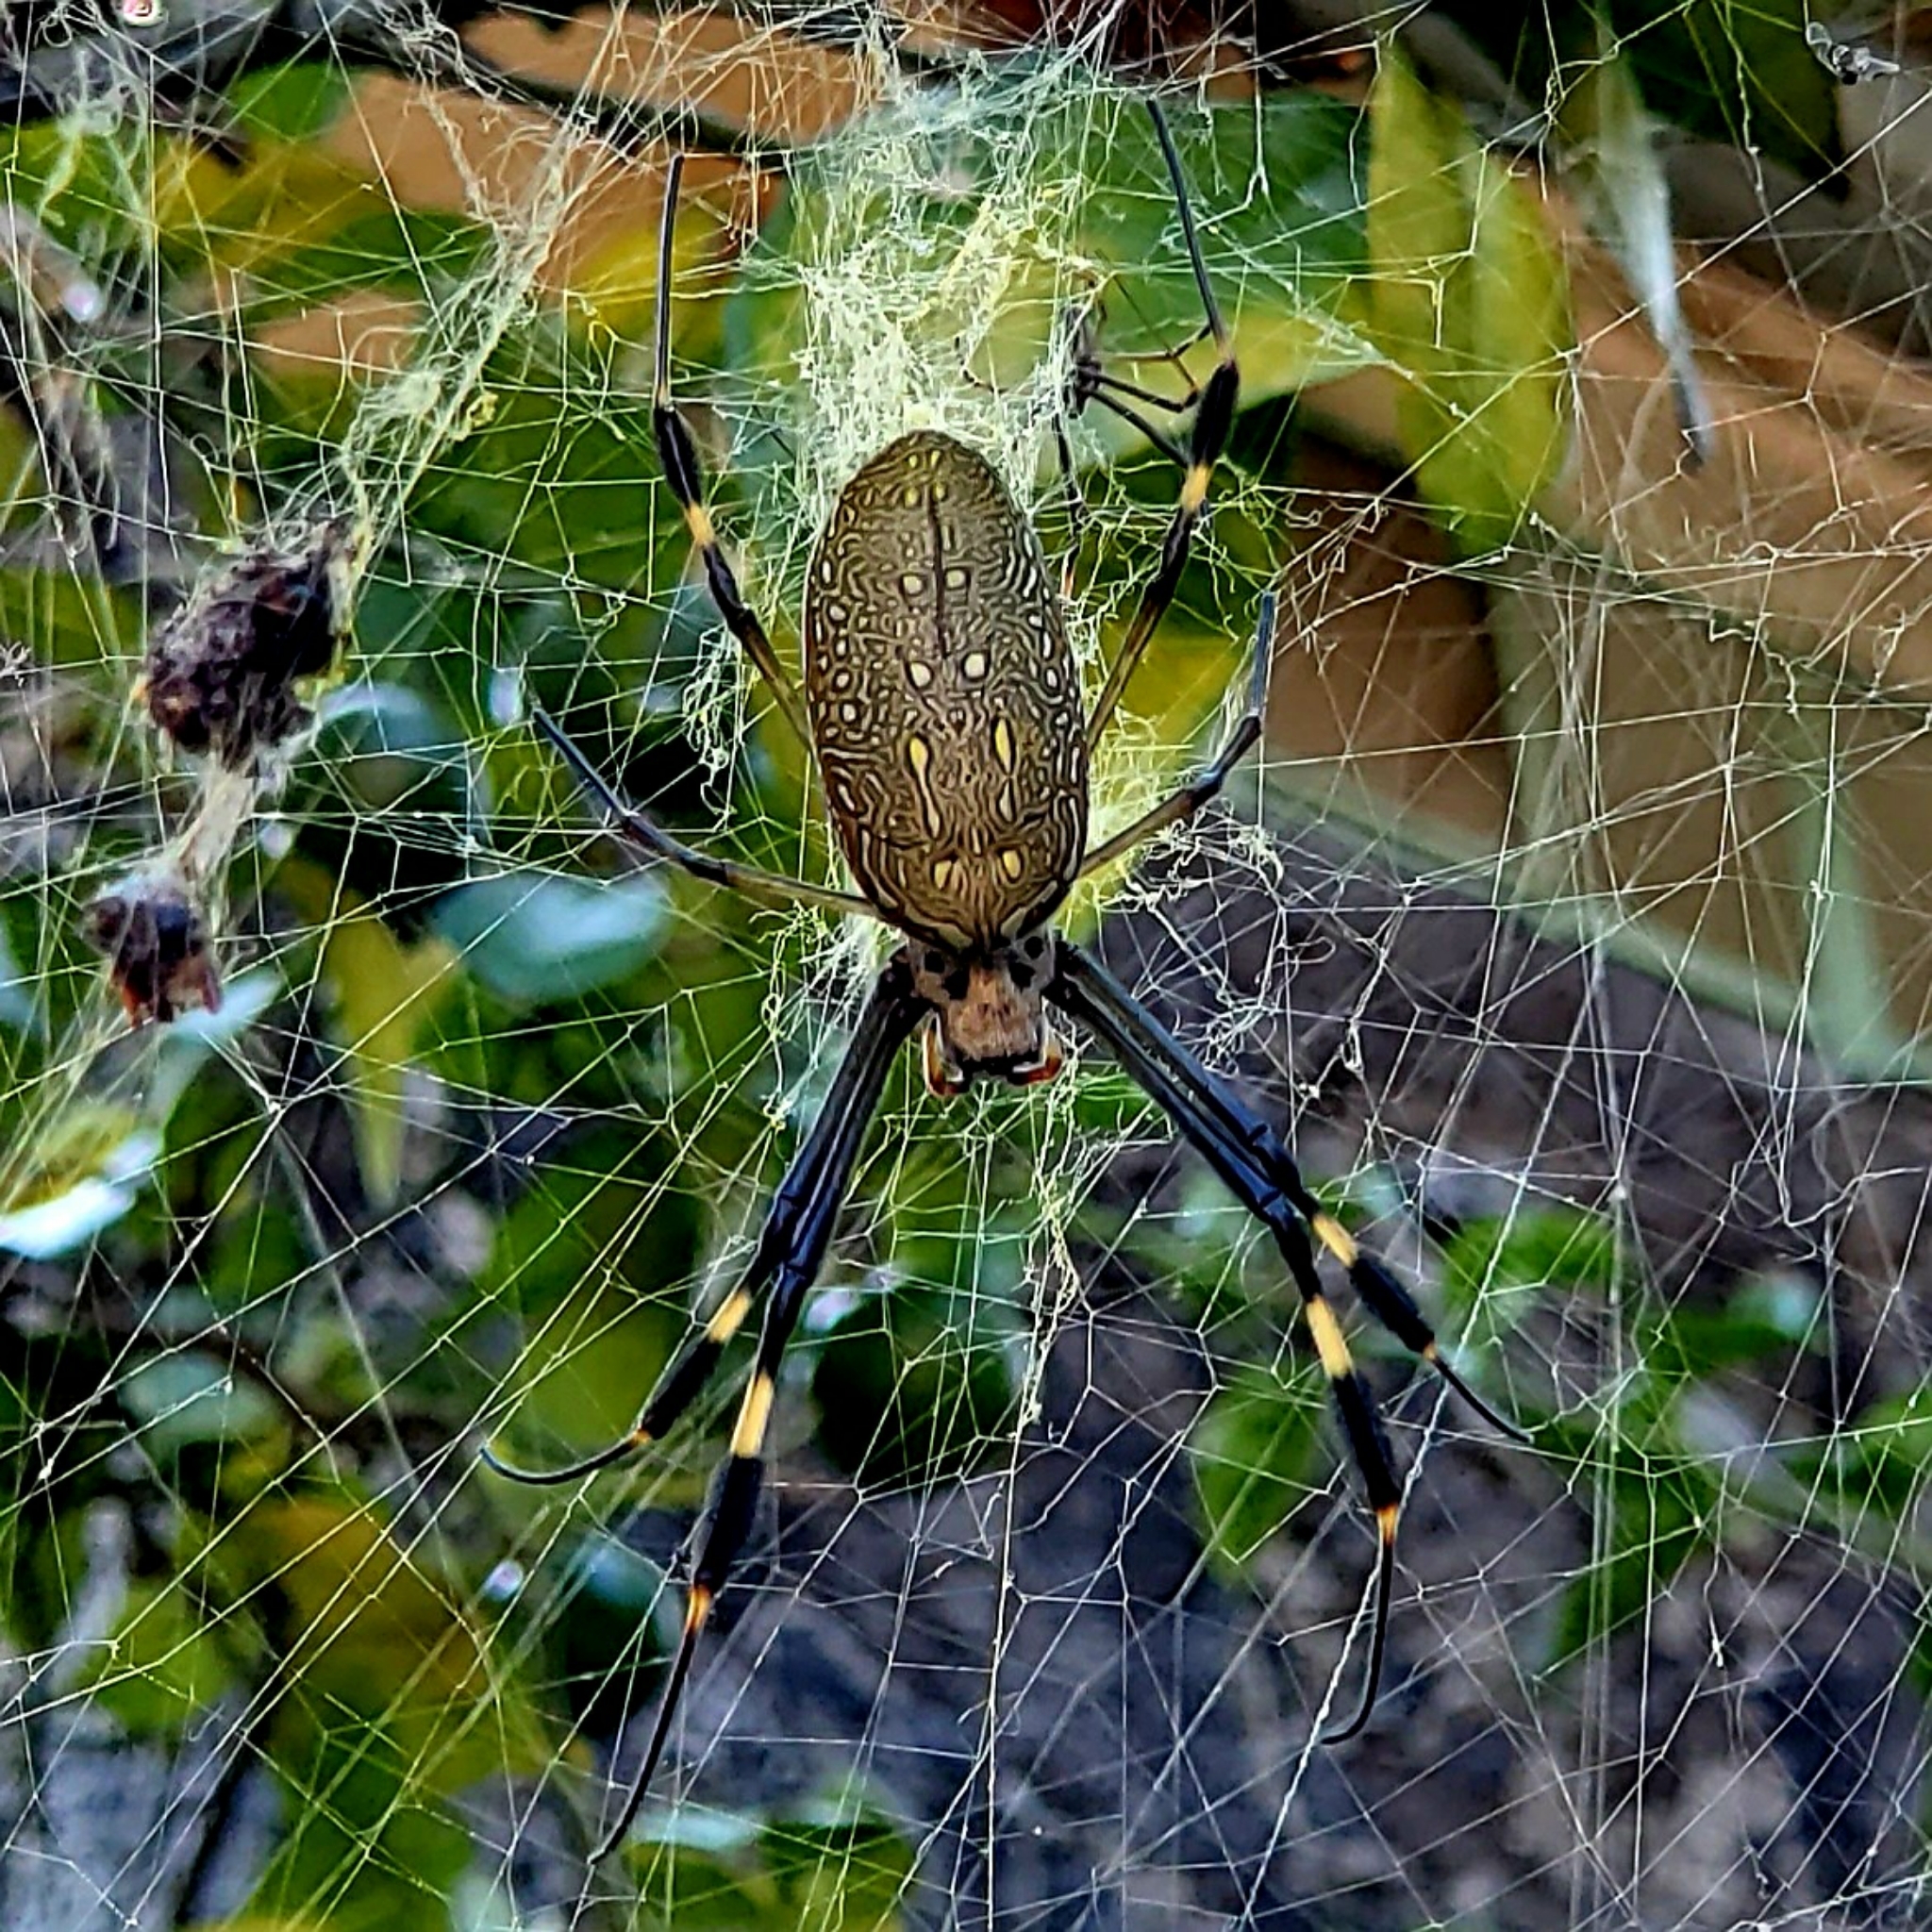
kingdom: Animalia
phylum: Arthropoda
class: Arachnida
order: Araneae
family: Araneidae
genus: Trichonephila
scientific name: Trichonephila clavipes
